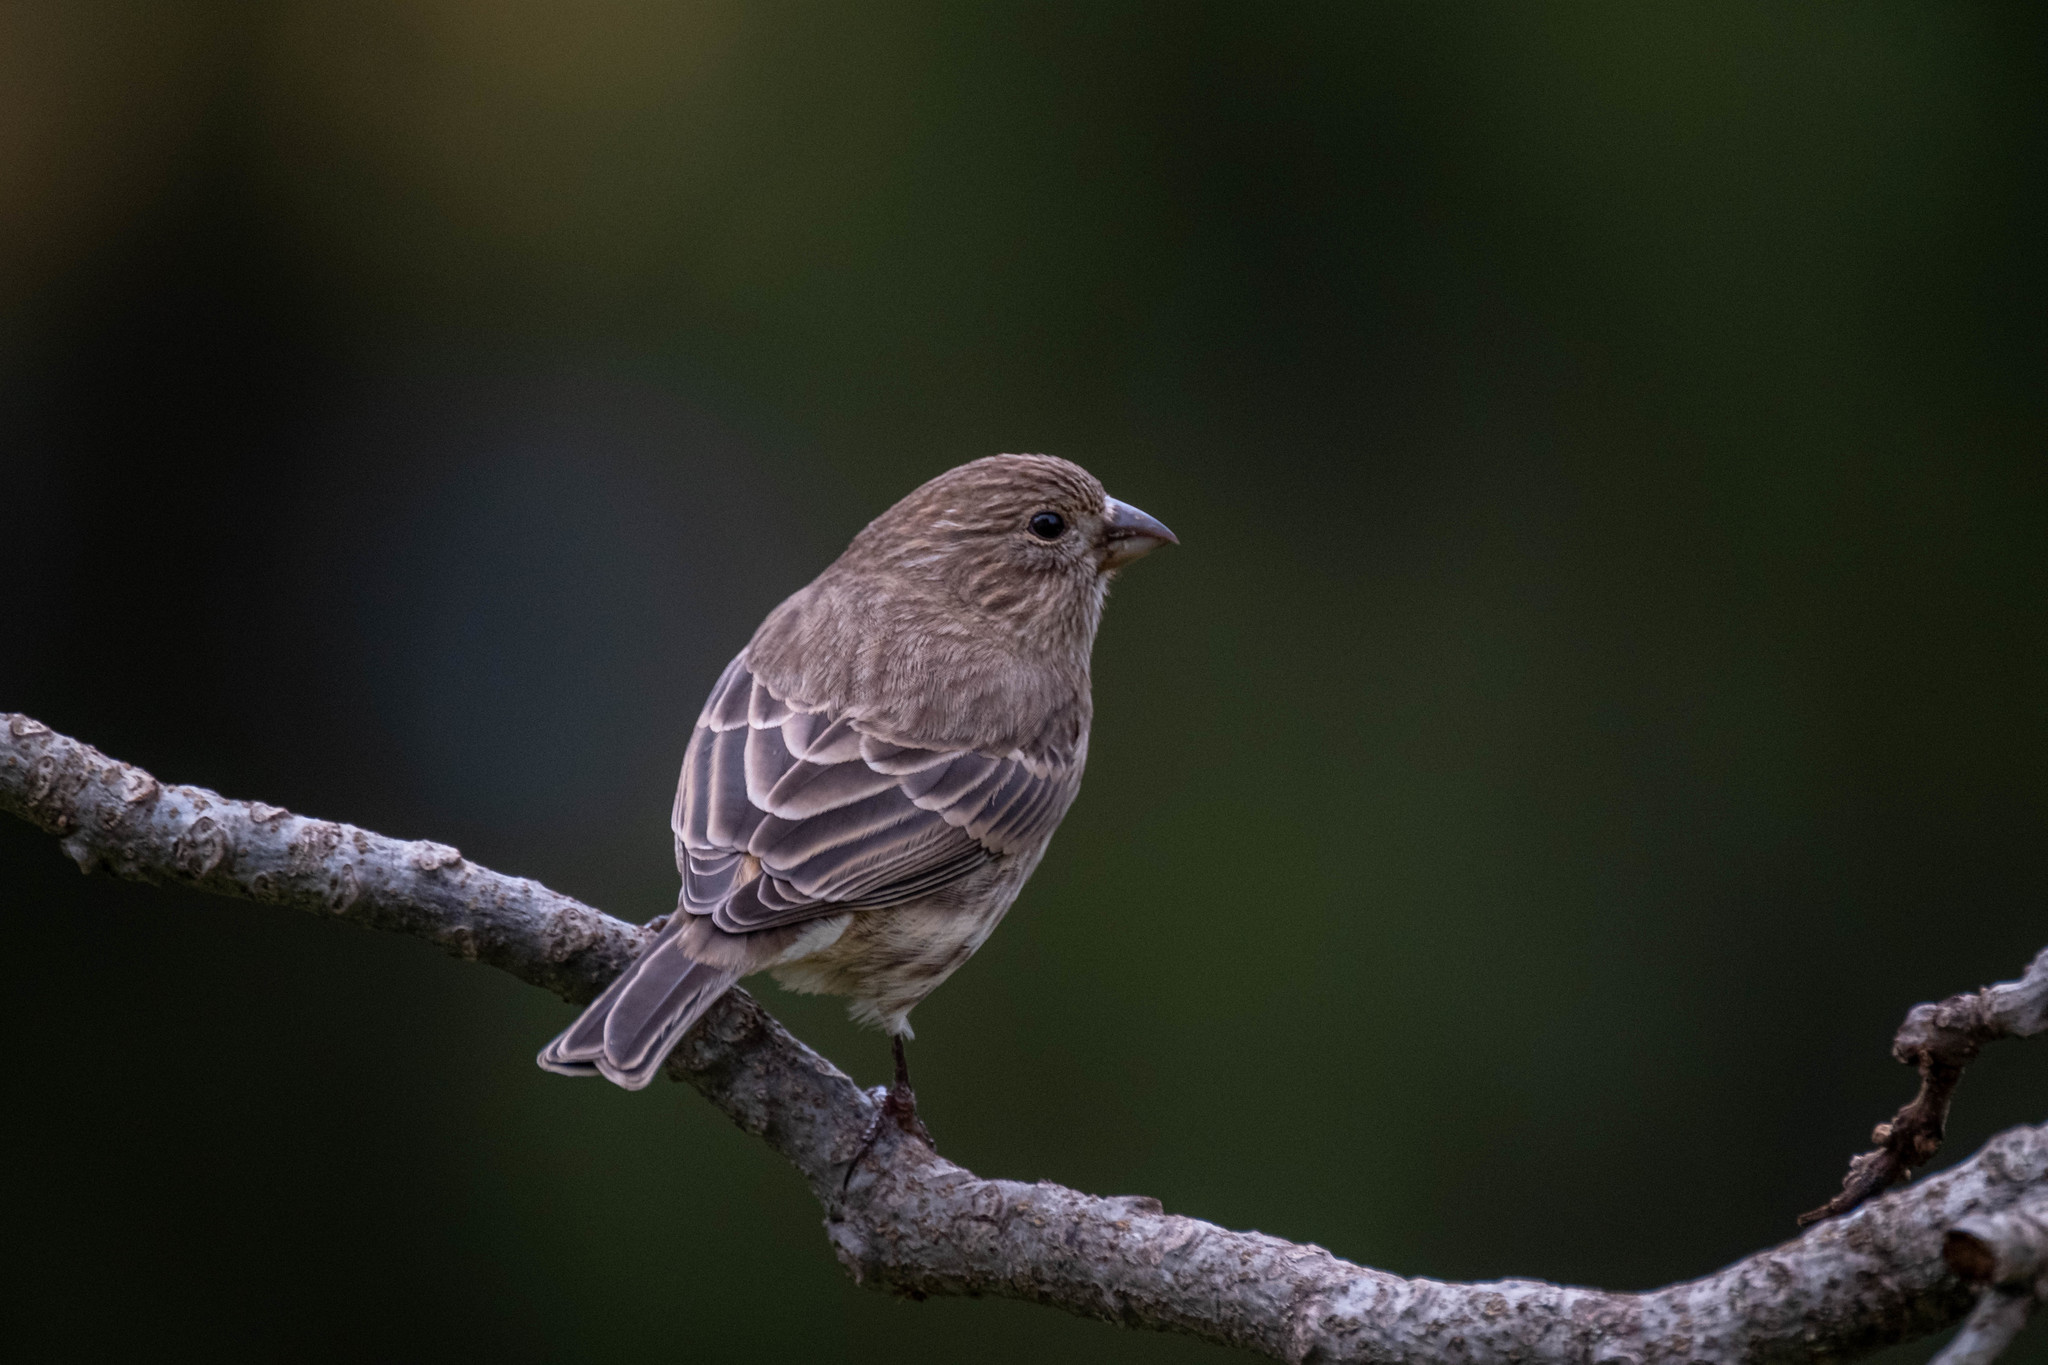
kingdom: Animalia
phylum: Chordata
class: Aves
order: Passeriformes
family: Fringillidae
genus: Haemorhous
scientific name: Haemorhous mexicanus
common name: House finch
